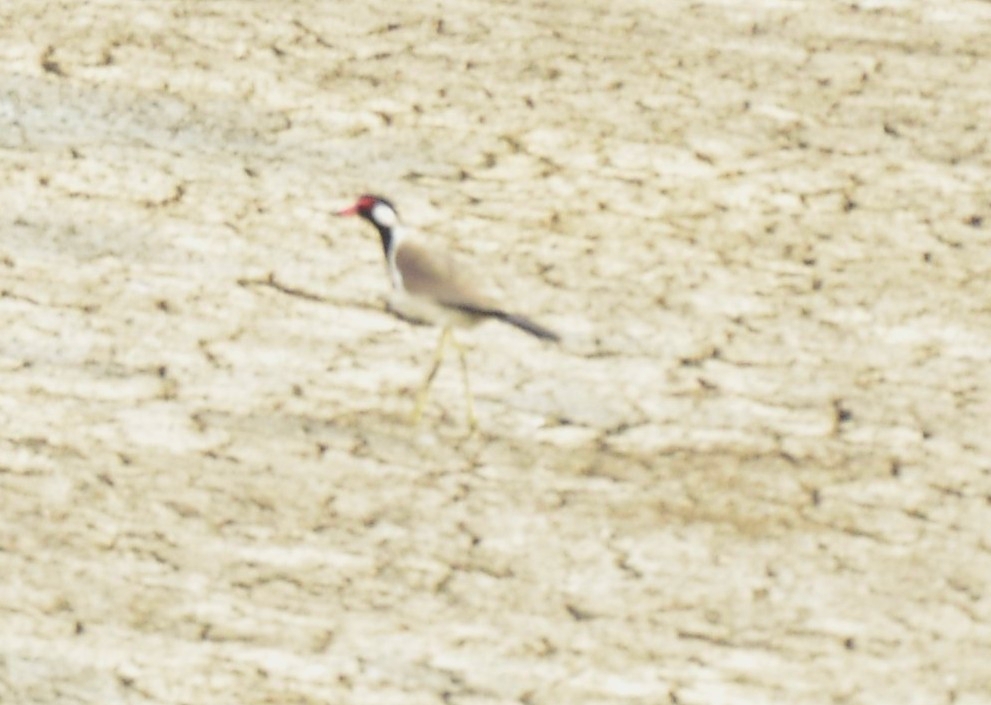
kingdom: Animalia
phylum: Chordata
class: Aves
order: Charadriiformes
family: Charadriidae
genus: Vanellus
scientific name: Vanellus indicus
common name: Red-wattled lapwing
